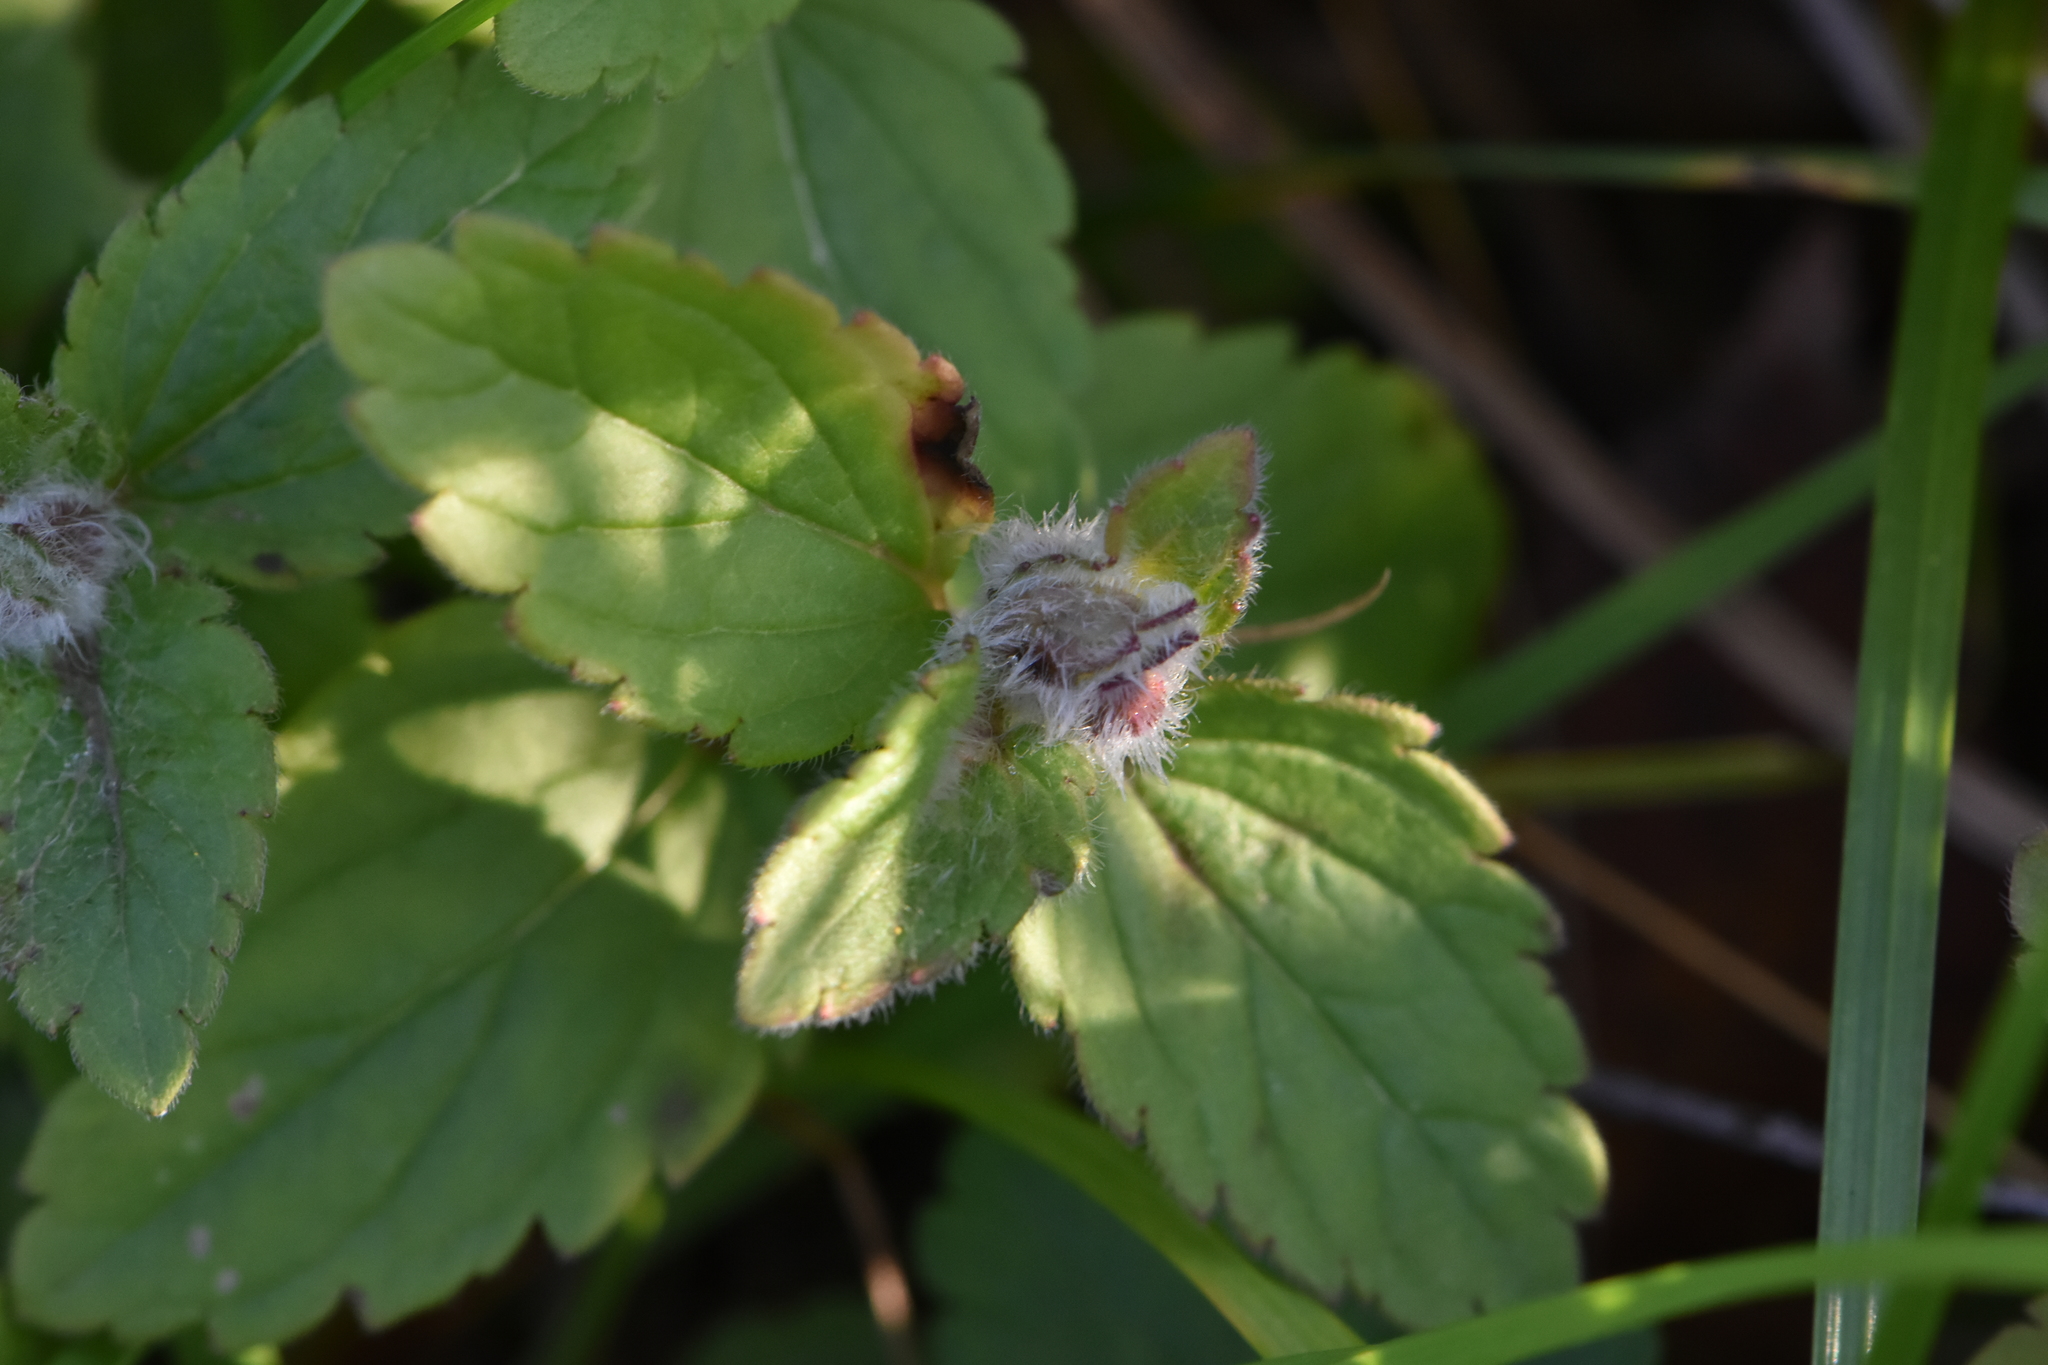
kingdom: Plantae
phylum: Tracheophyta
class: Magnoliopsida
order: Lamiales
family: Plantaginaceae
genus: Veronica
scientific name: Veronica chamaedrys
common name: Germander speedwell
